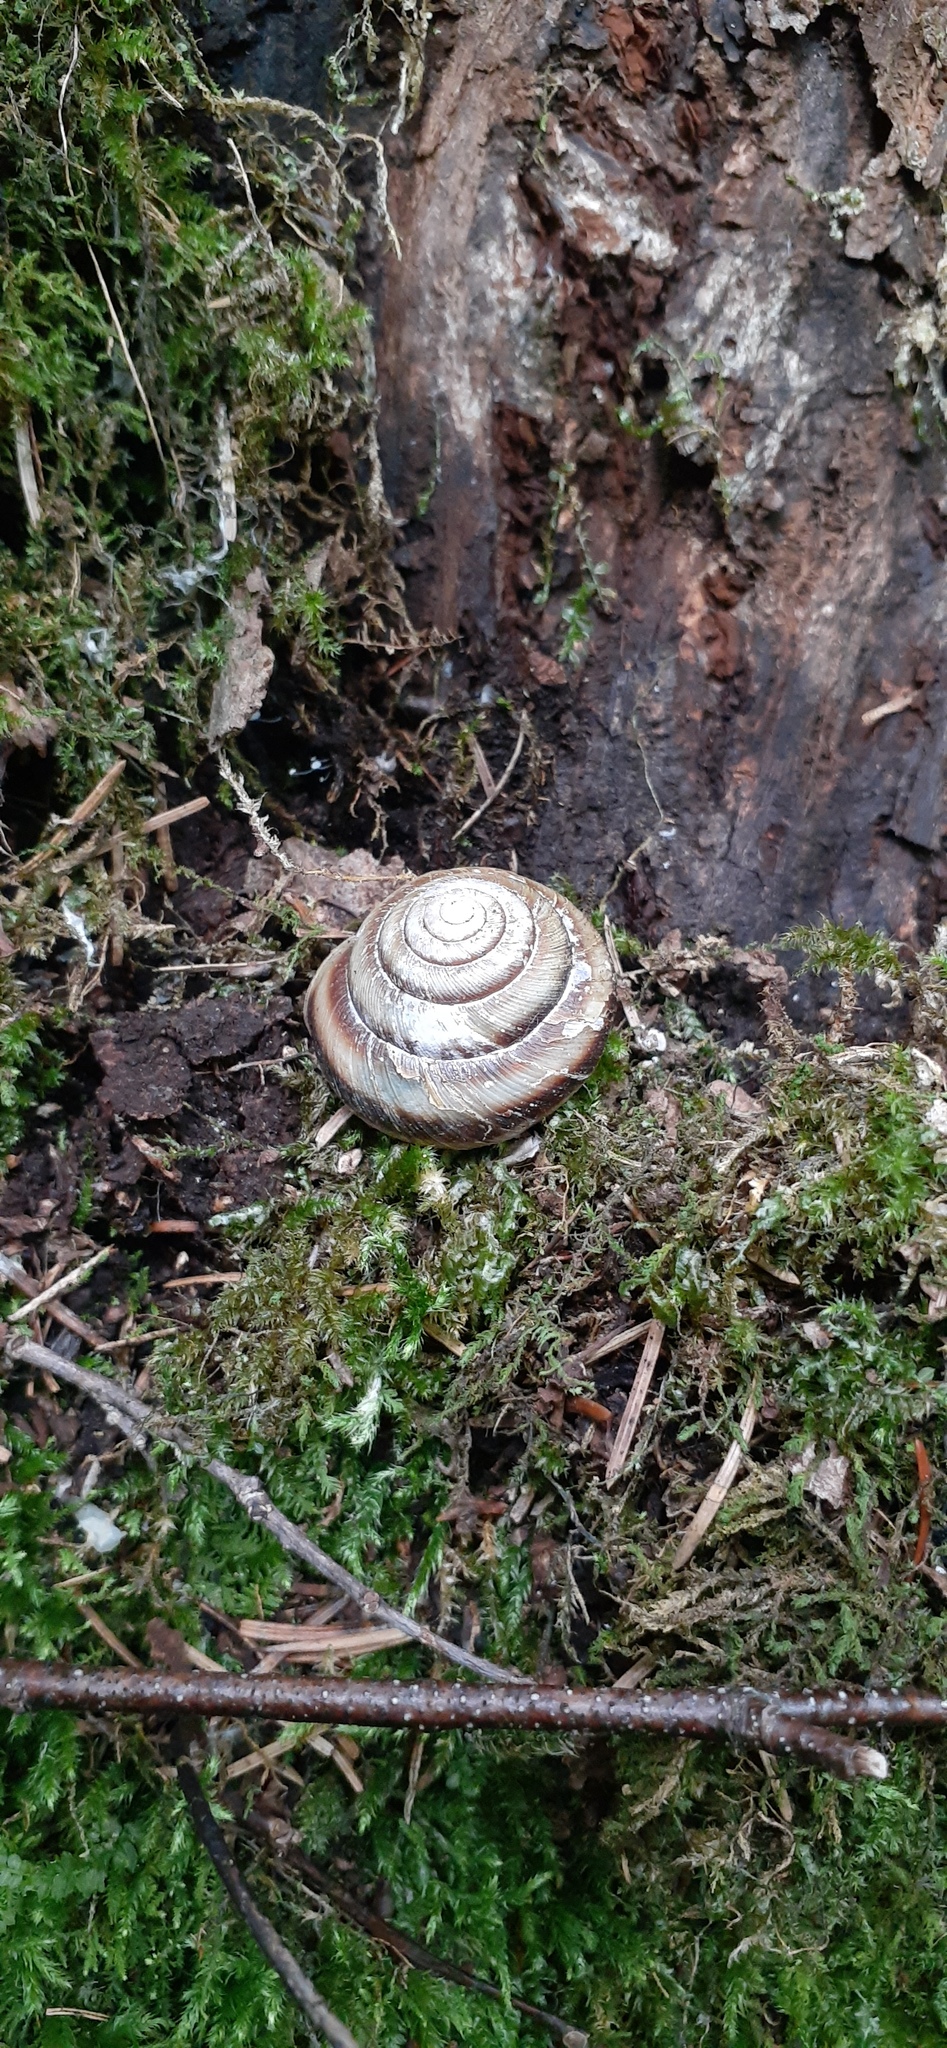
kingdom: Animalia
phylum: Mollusca
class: Gastropoda
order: Stylommatophora
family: Camaenidae
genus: Karaftohelix
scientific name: Karaftohelix maackii
